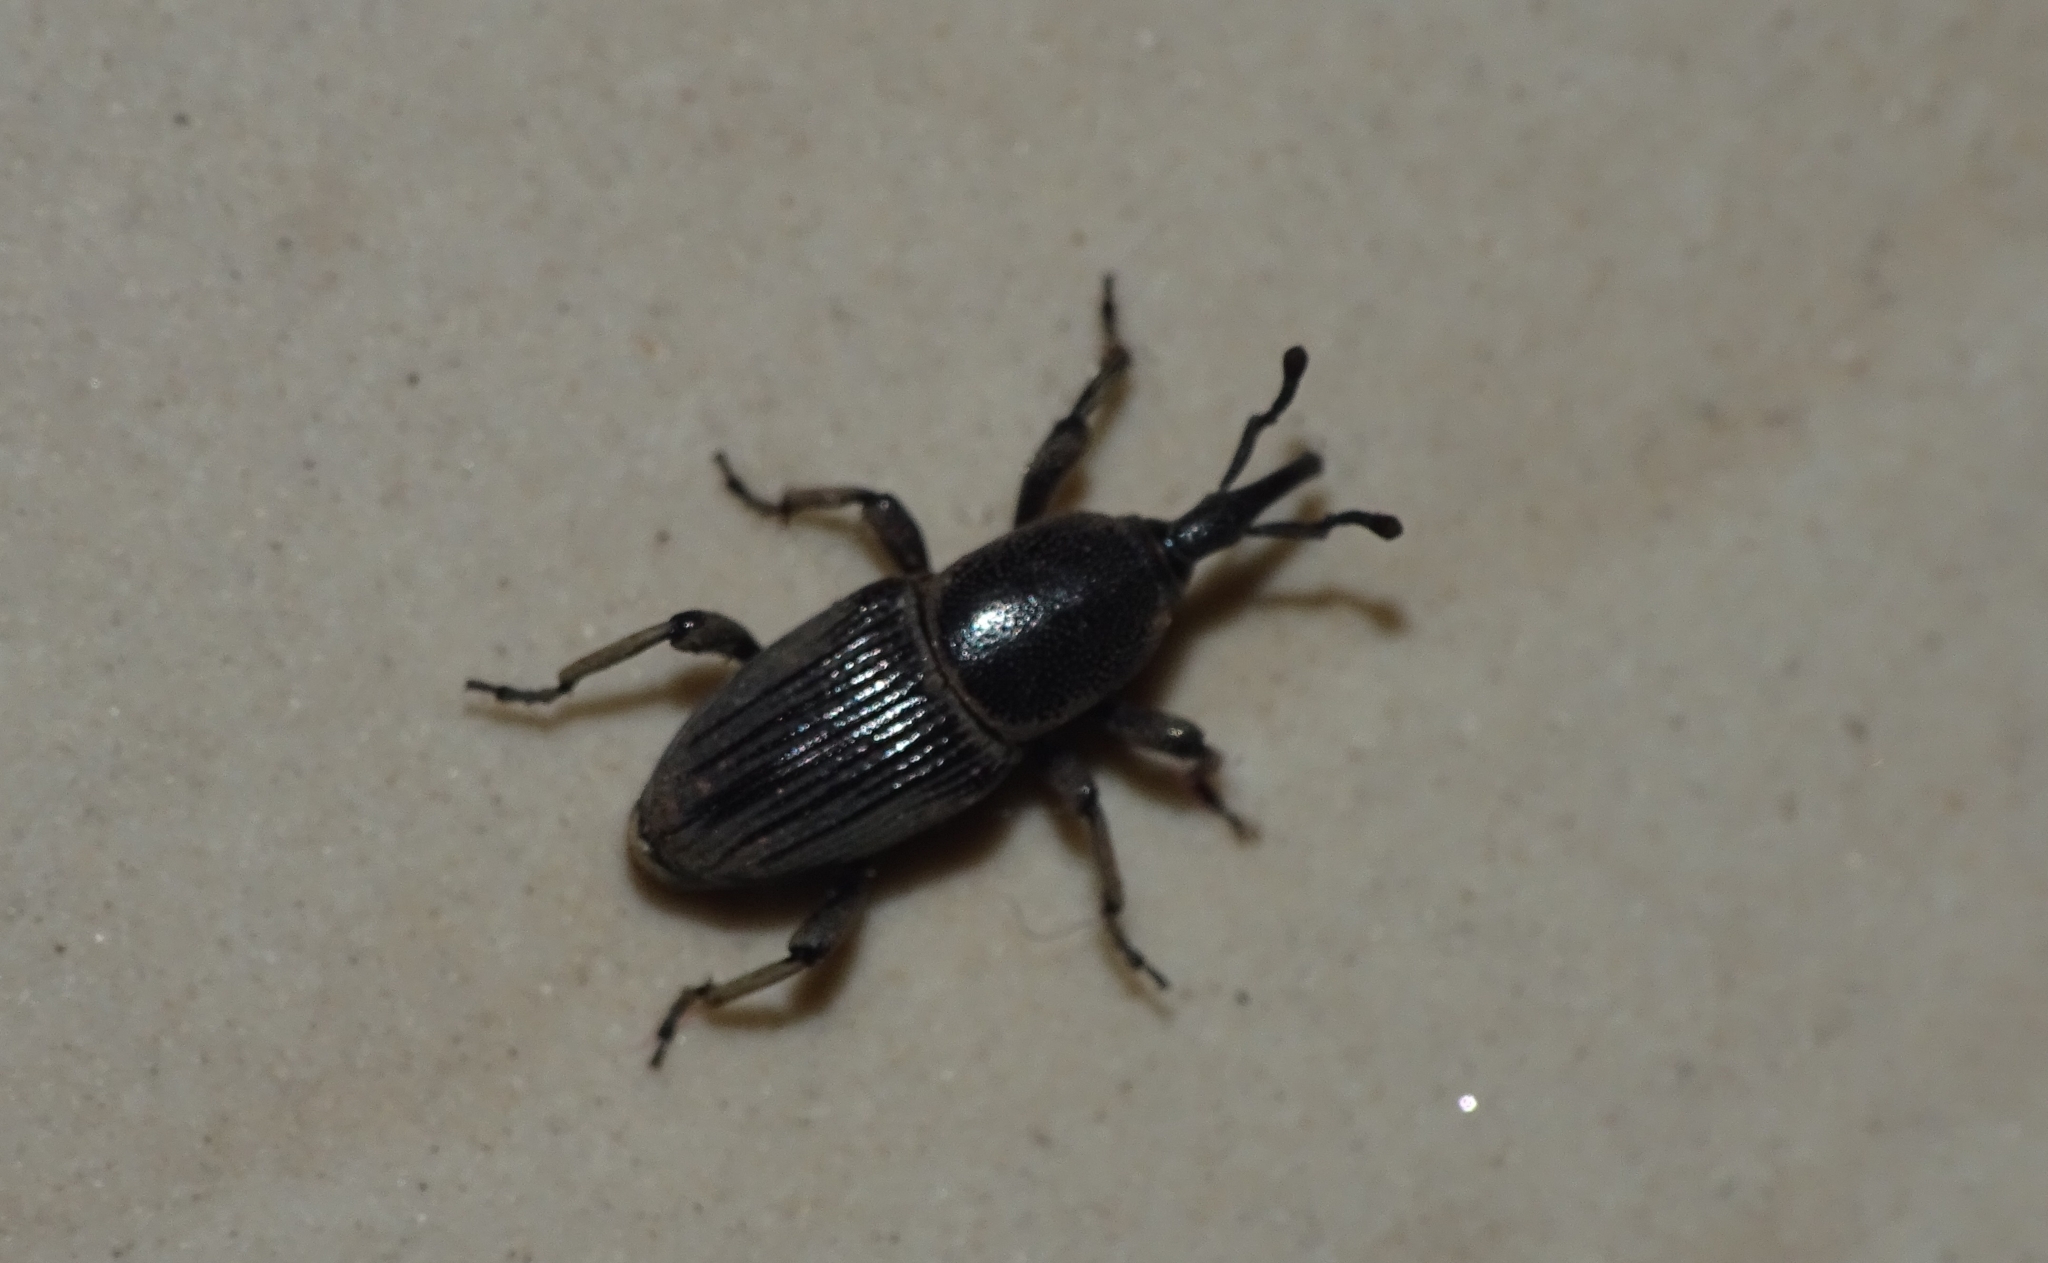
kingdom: Animalia
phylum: Arthropoda
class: Insecta
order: Coleoptera
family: Dryophthoridae
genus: Cosmopolites
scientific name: Cosmopolites sordidus
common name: Palm weevil
